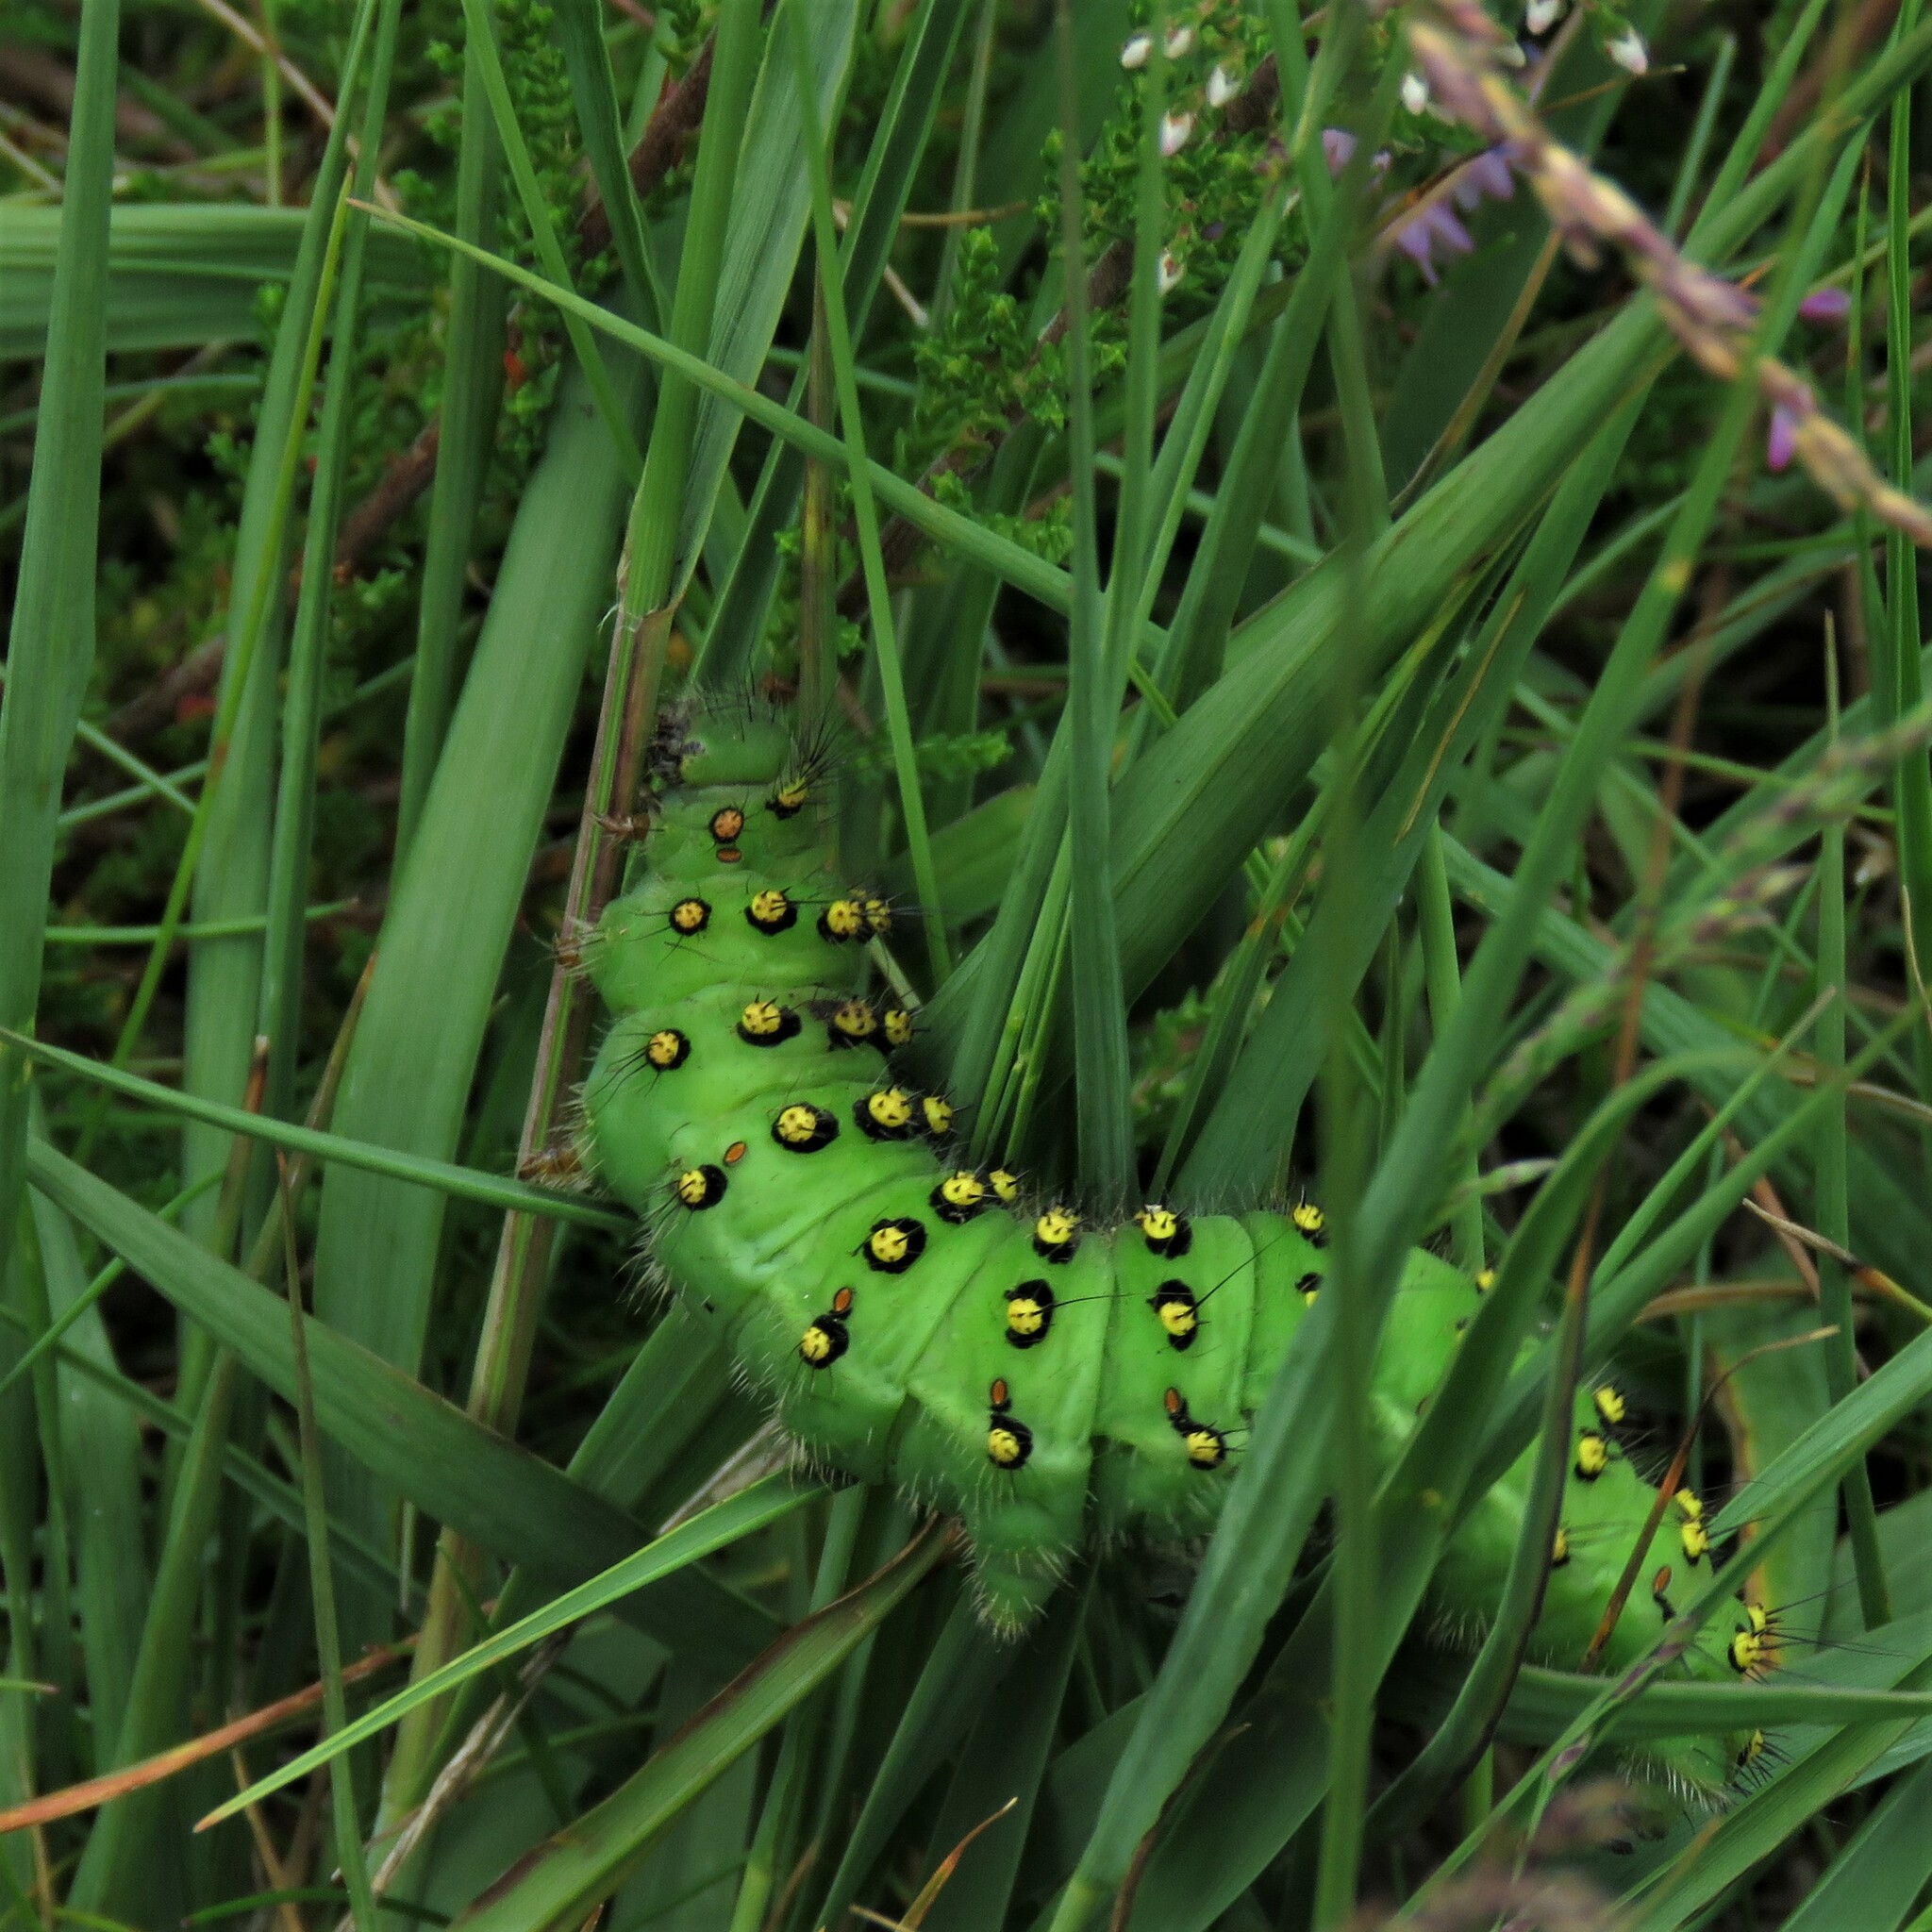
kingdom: Animalia
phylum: Arthropoda
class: Insecta
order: Lepidoptera
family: Saturniidae
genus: Saturnia
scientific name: Saturnia pavonia
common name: Emperor moth
